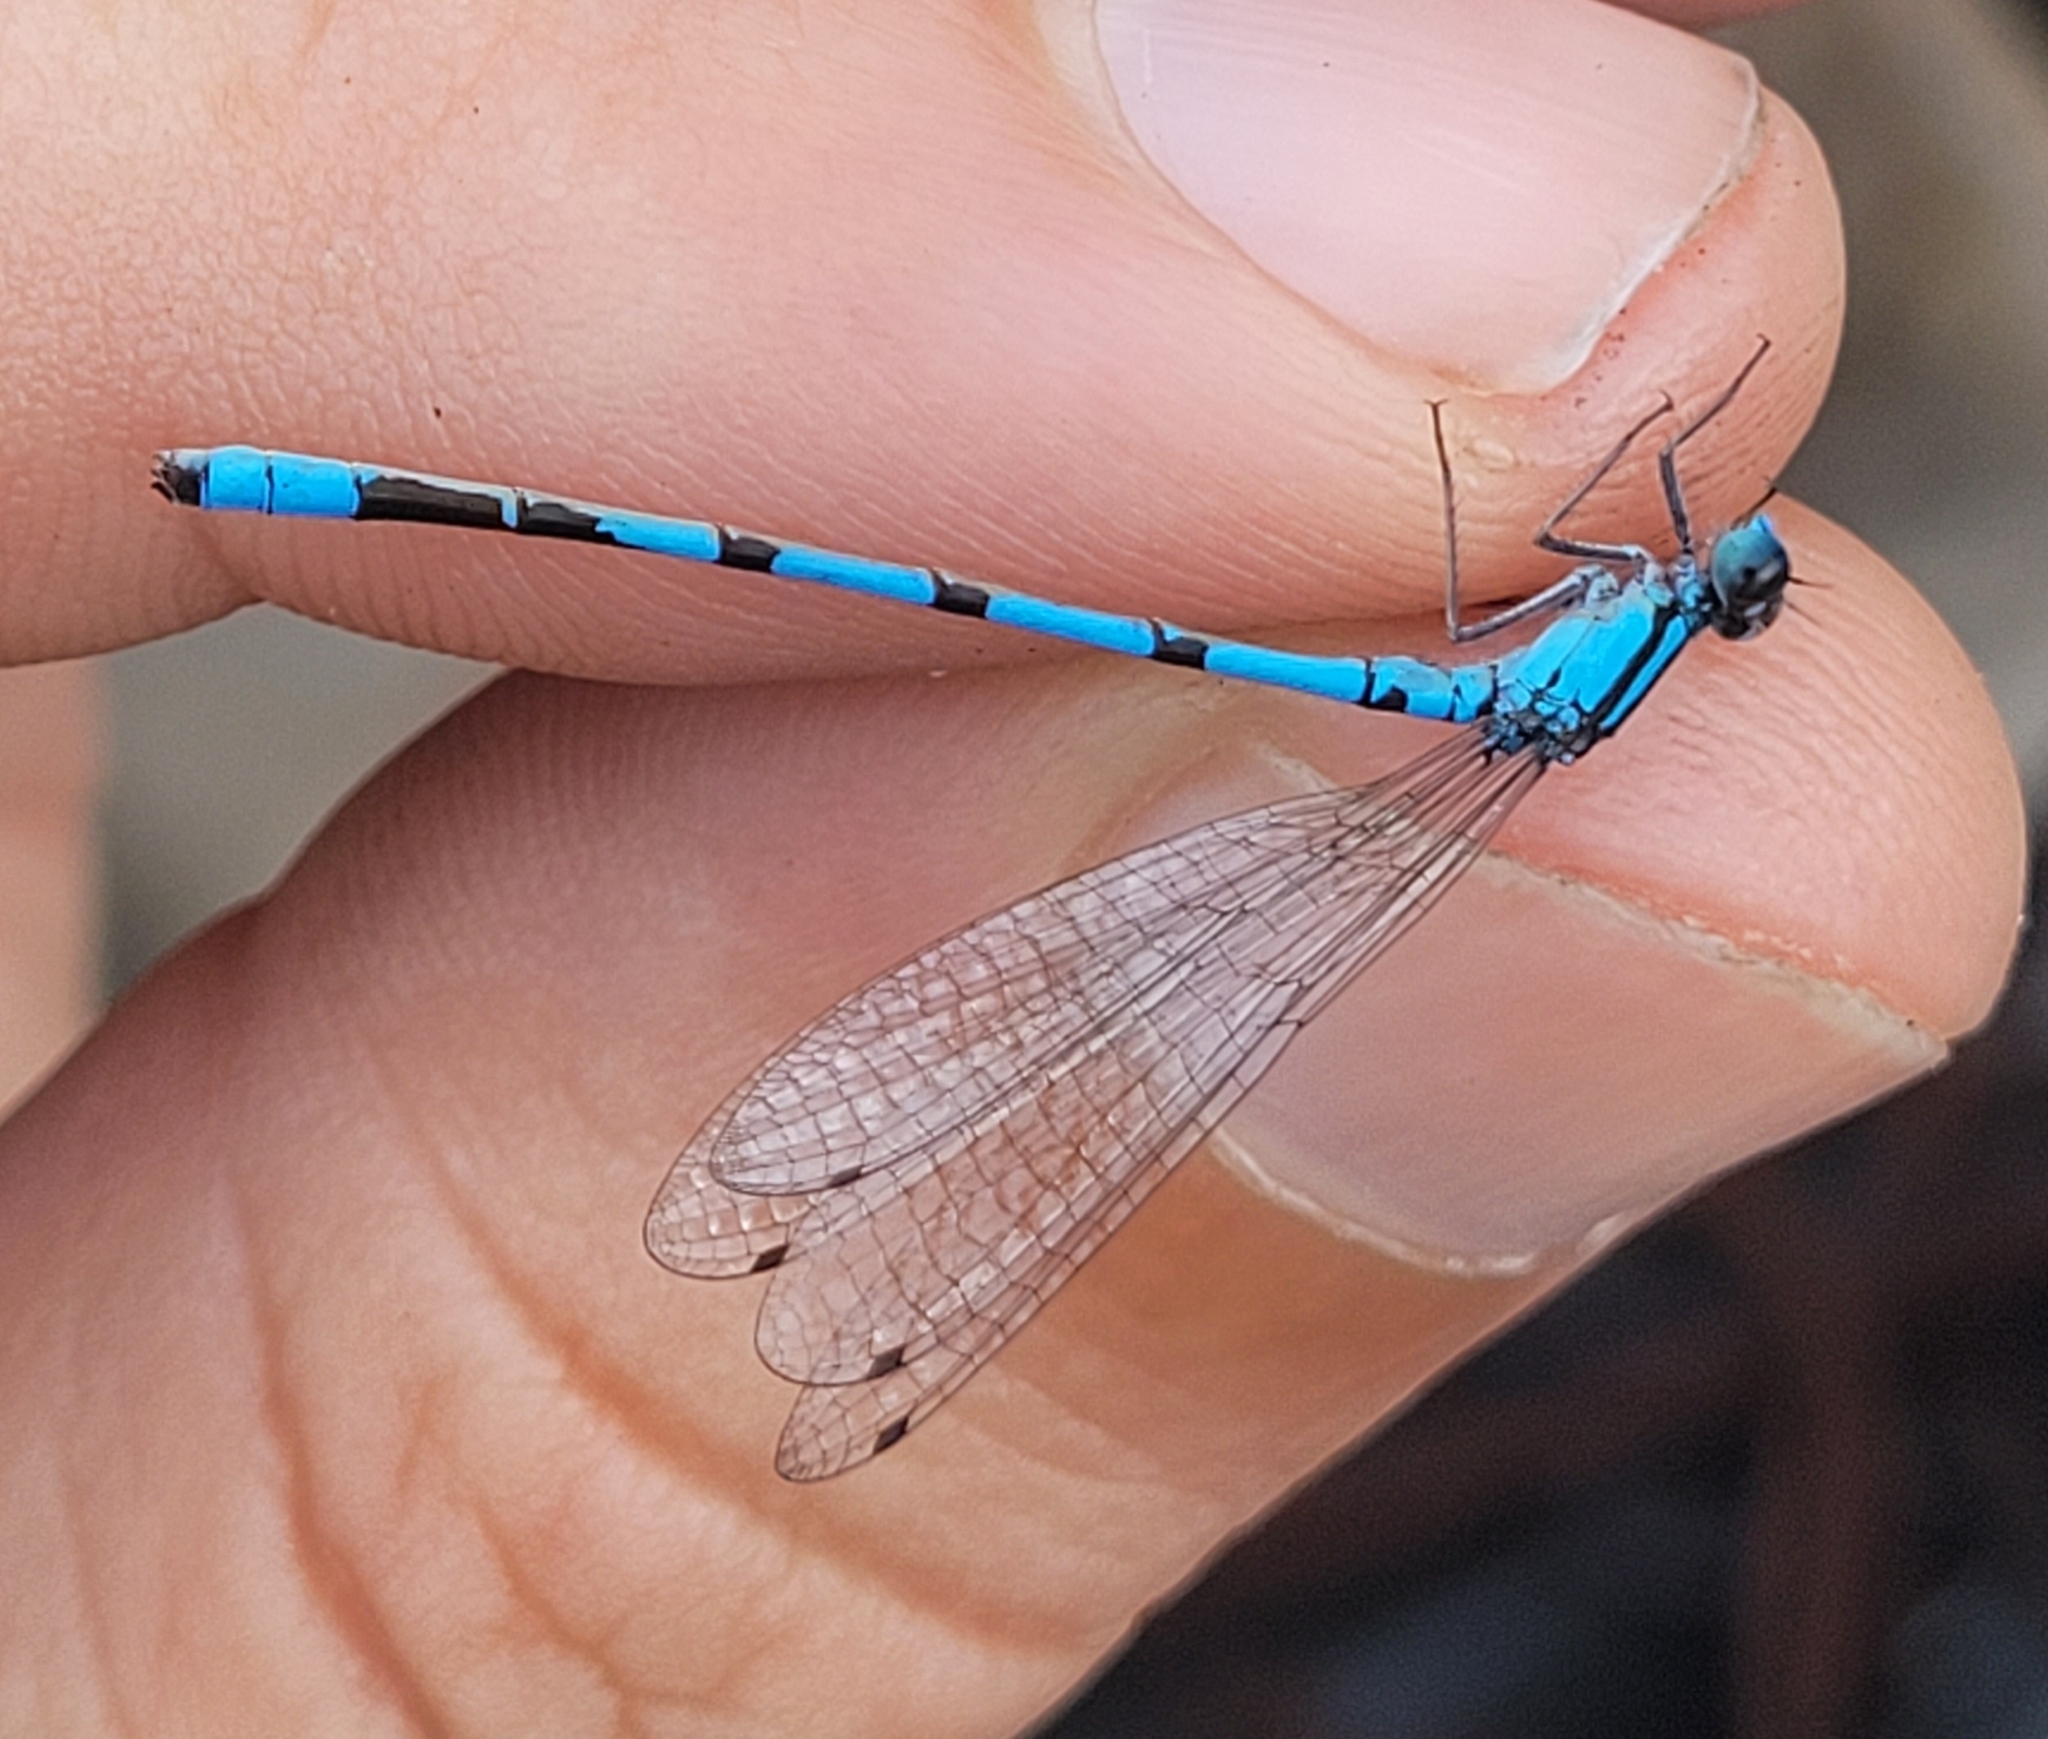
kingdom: Animalia
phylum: Arthropoda
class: Insecta
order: Odonata
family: Coenagrionidae
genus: Enallagma
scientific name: Enallagma hageni
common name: Hagen's bluet
